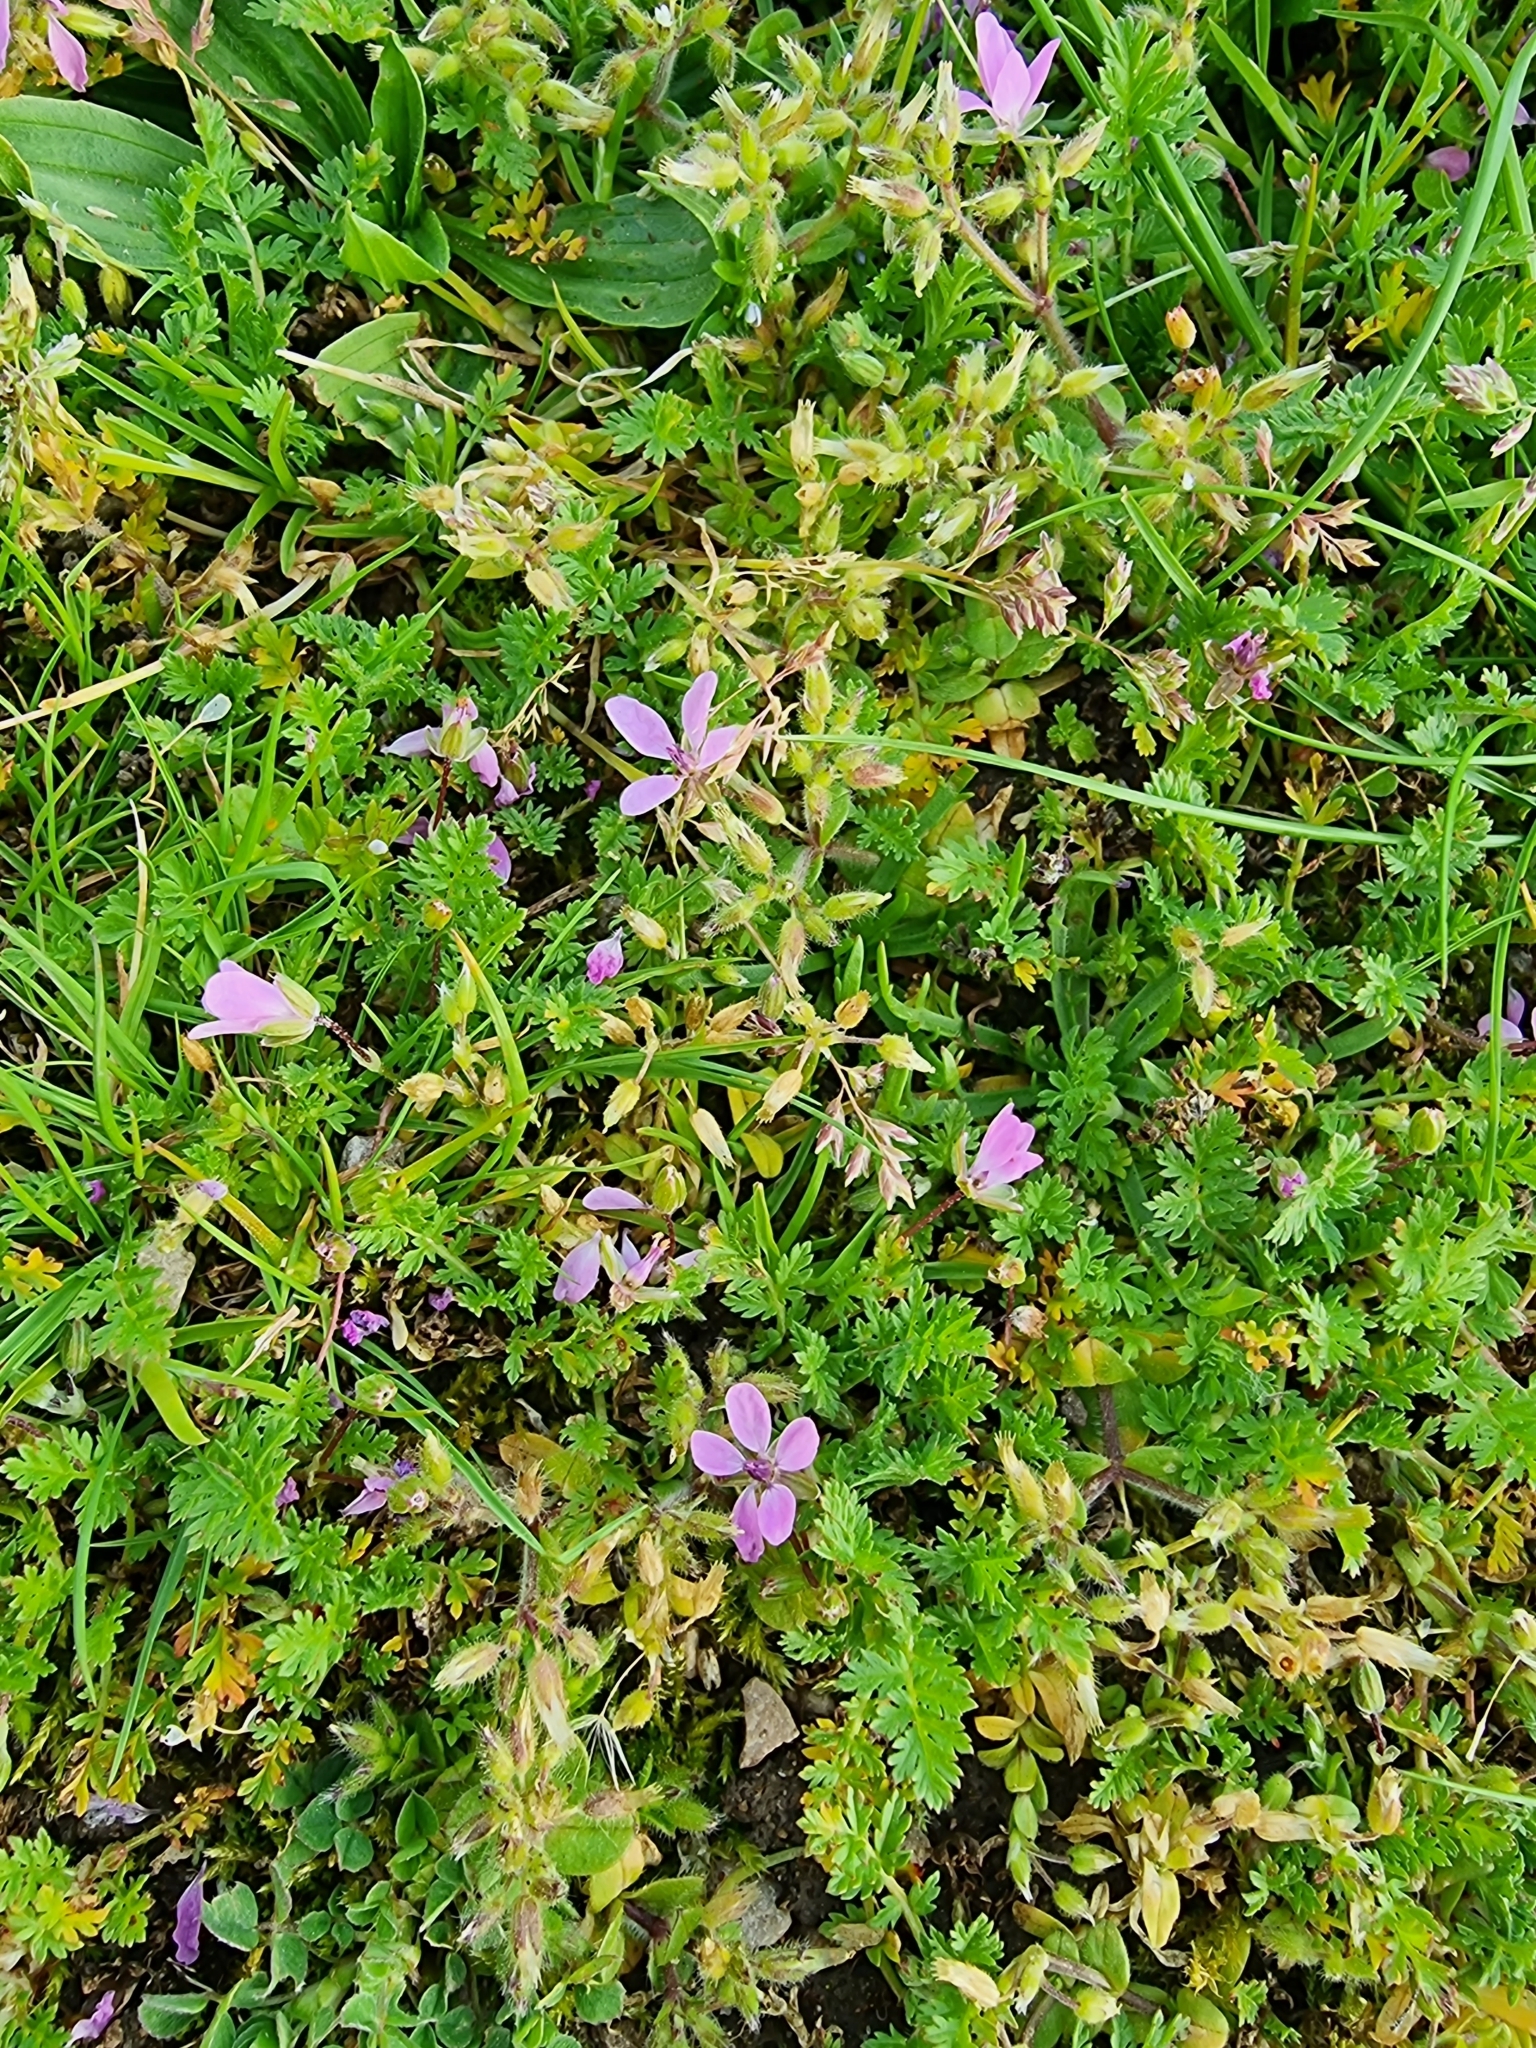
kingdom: Plantae
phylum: Tracheophyta
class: Magnoliopsida
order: Geraniales
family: Geraniaceae
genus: Erodium
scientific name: Erodium cicutarium
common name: Common stork's-bill
